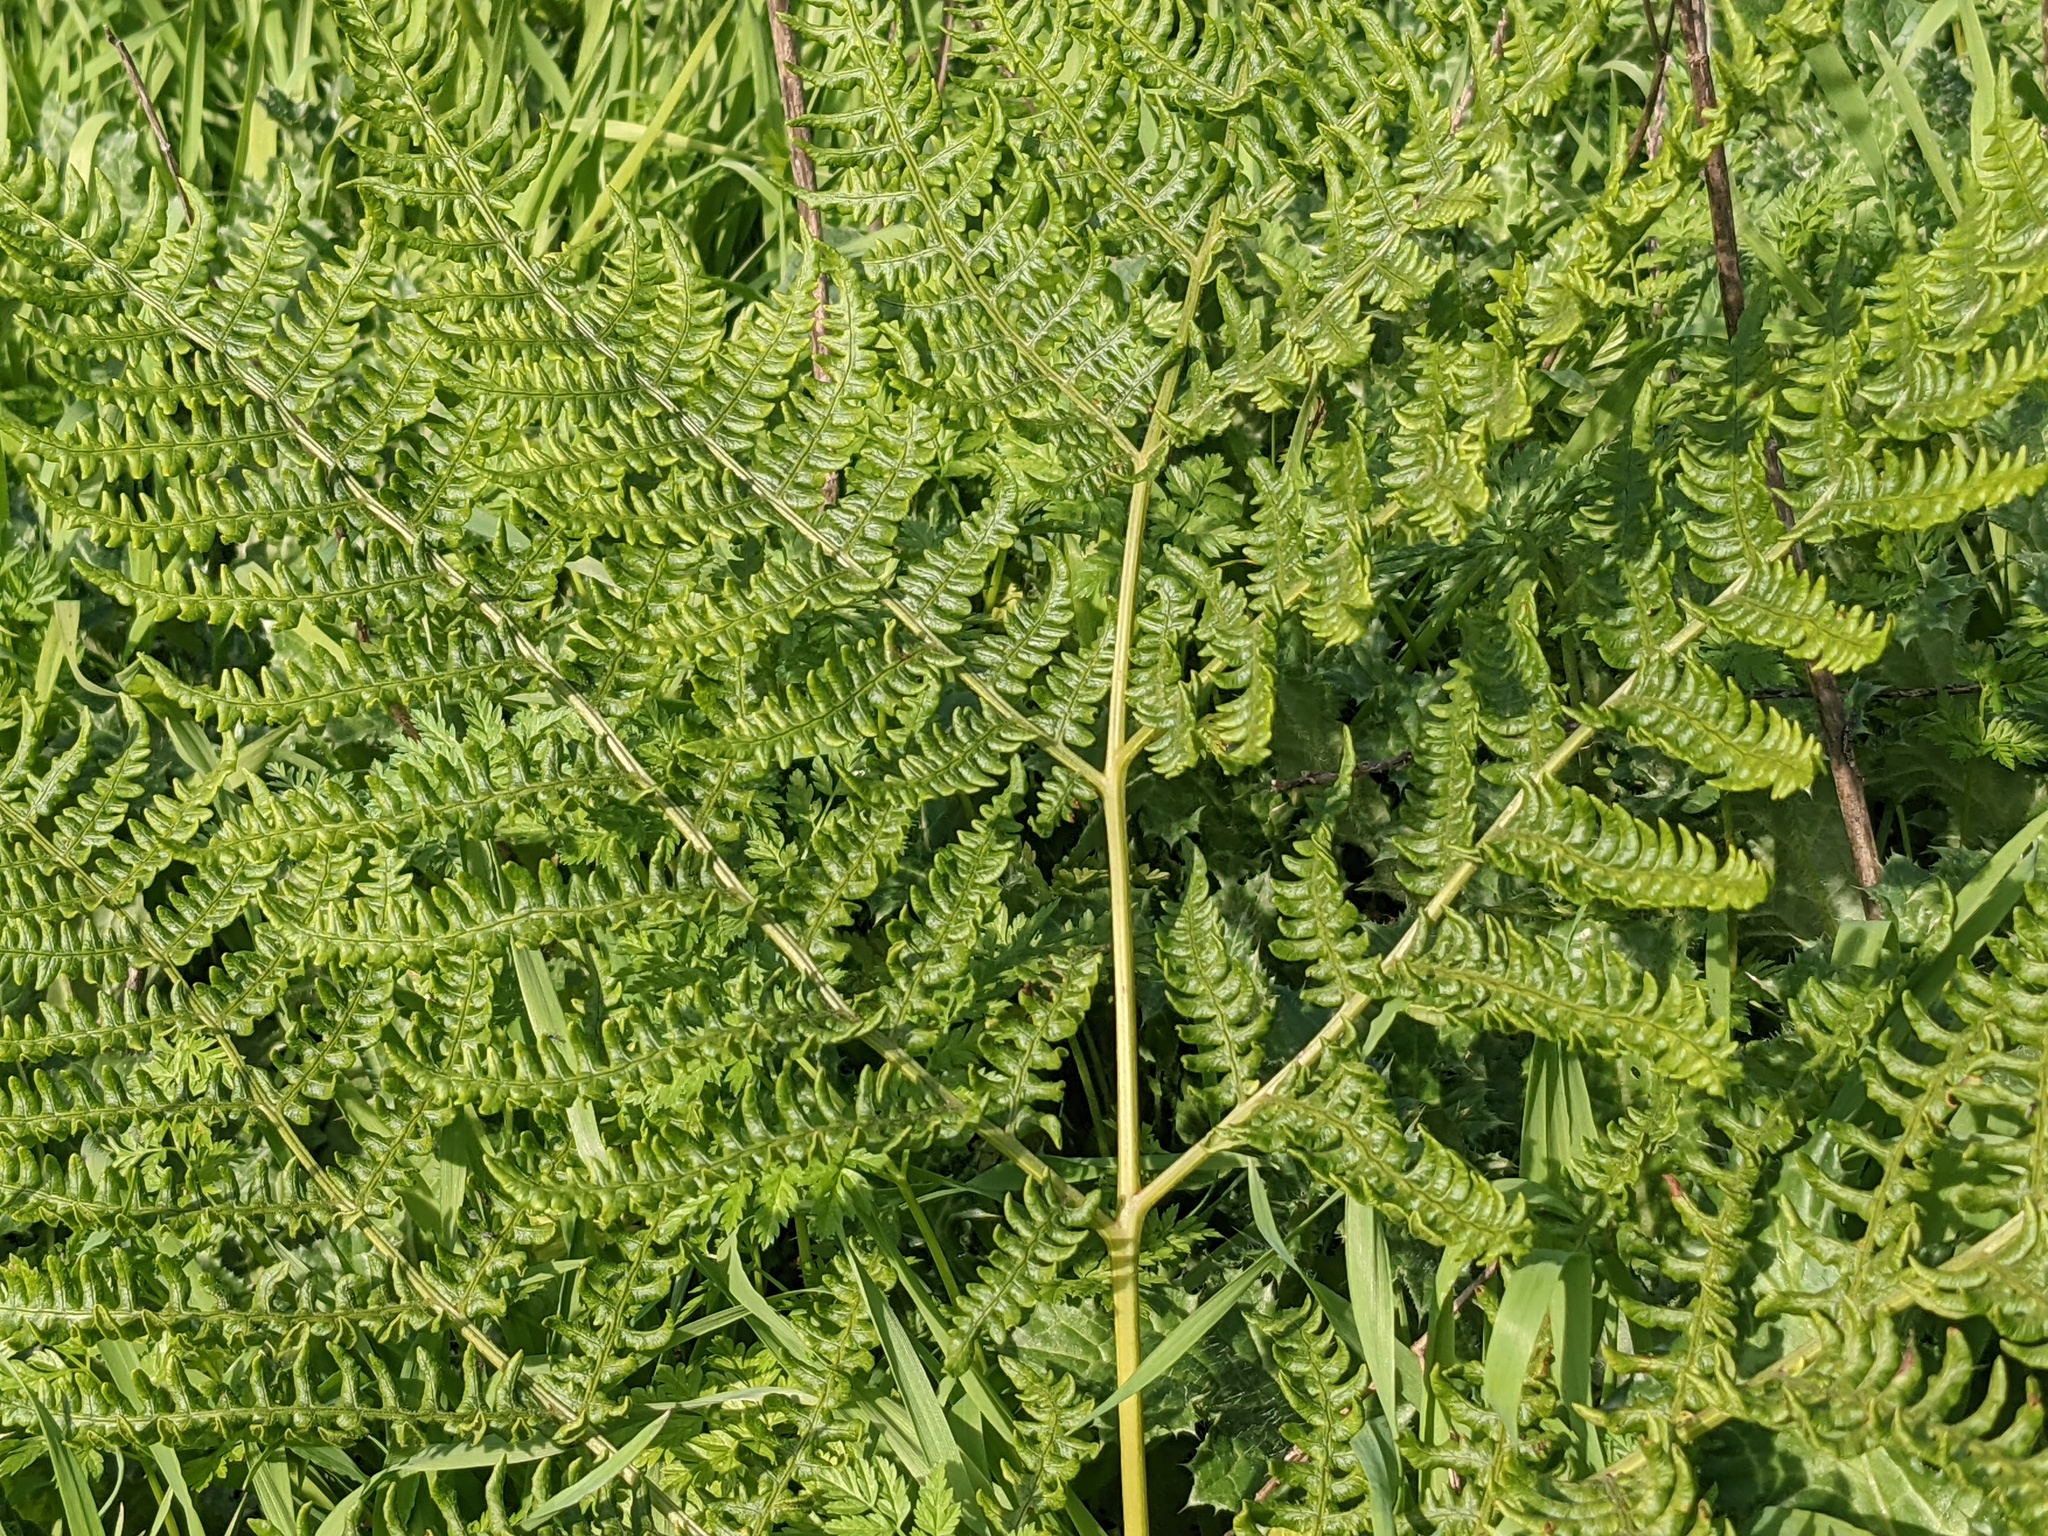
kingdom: Plantae
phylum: Tracheophyta
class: Polypodiopsida
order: Polypodiales
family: Dennstaedtiaceae
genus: Pteridium
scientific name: Pteridium aquilinum
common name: Bracken
